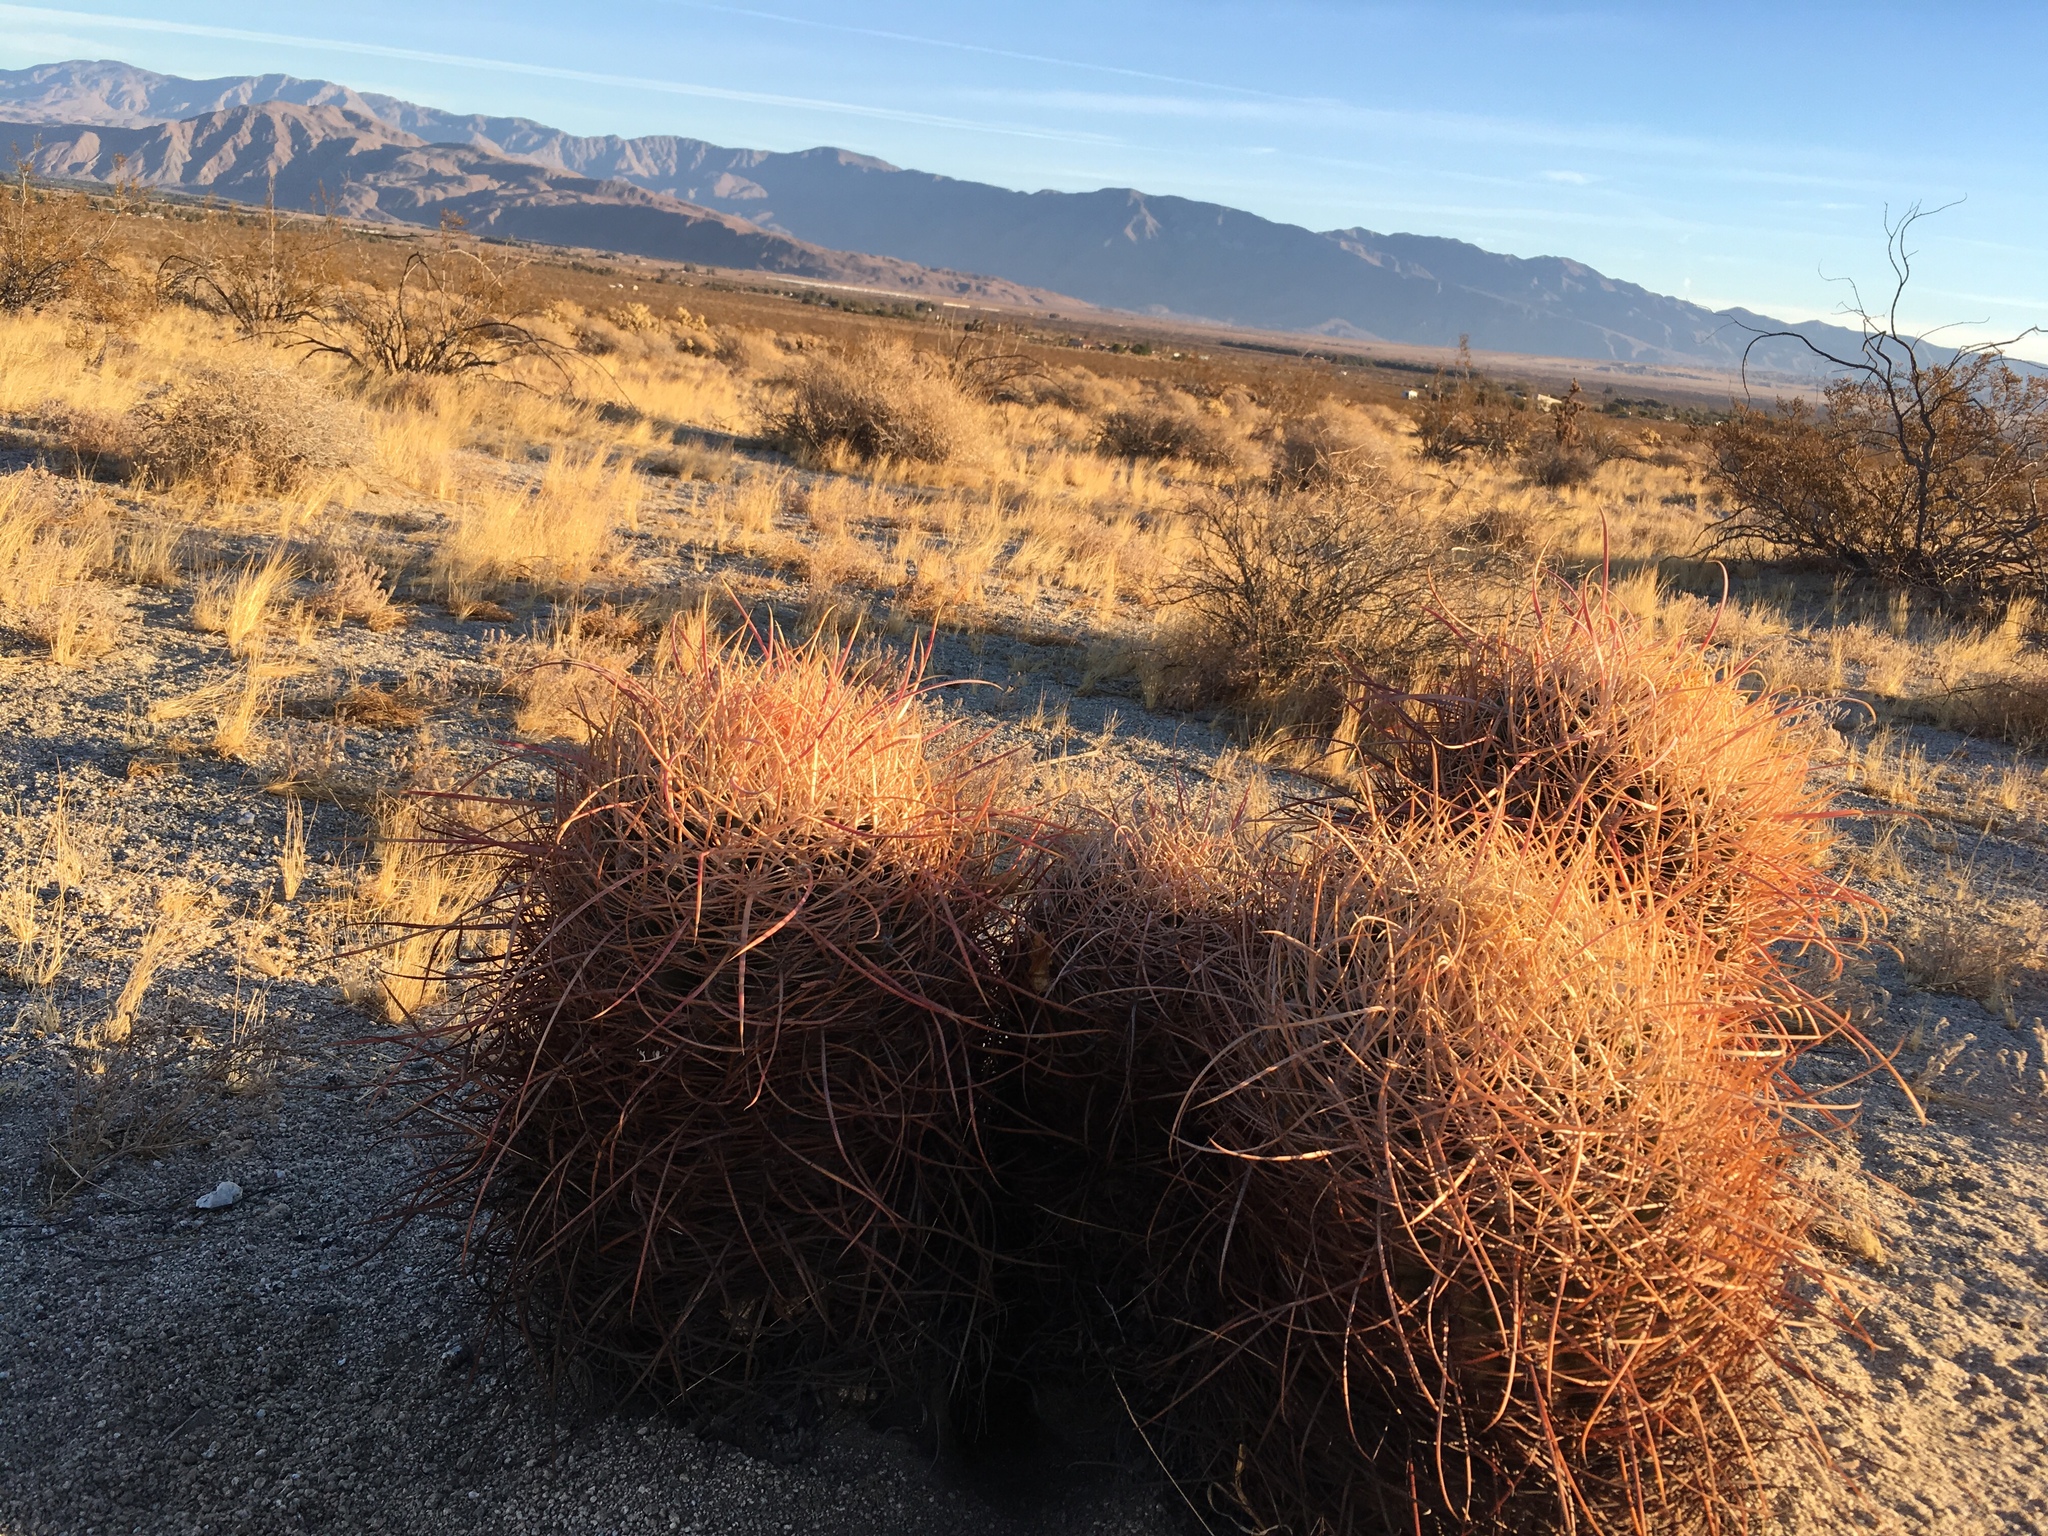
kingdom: Plantae
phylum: Tracheophyta
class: Magnoliopsida
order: Caryophyllales
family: Cactaceae
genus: Ferocactus
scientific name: Ferocactus cylindraceus
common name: California barrel cactus
